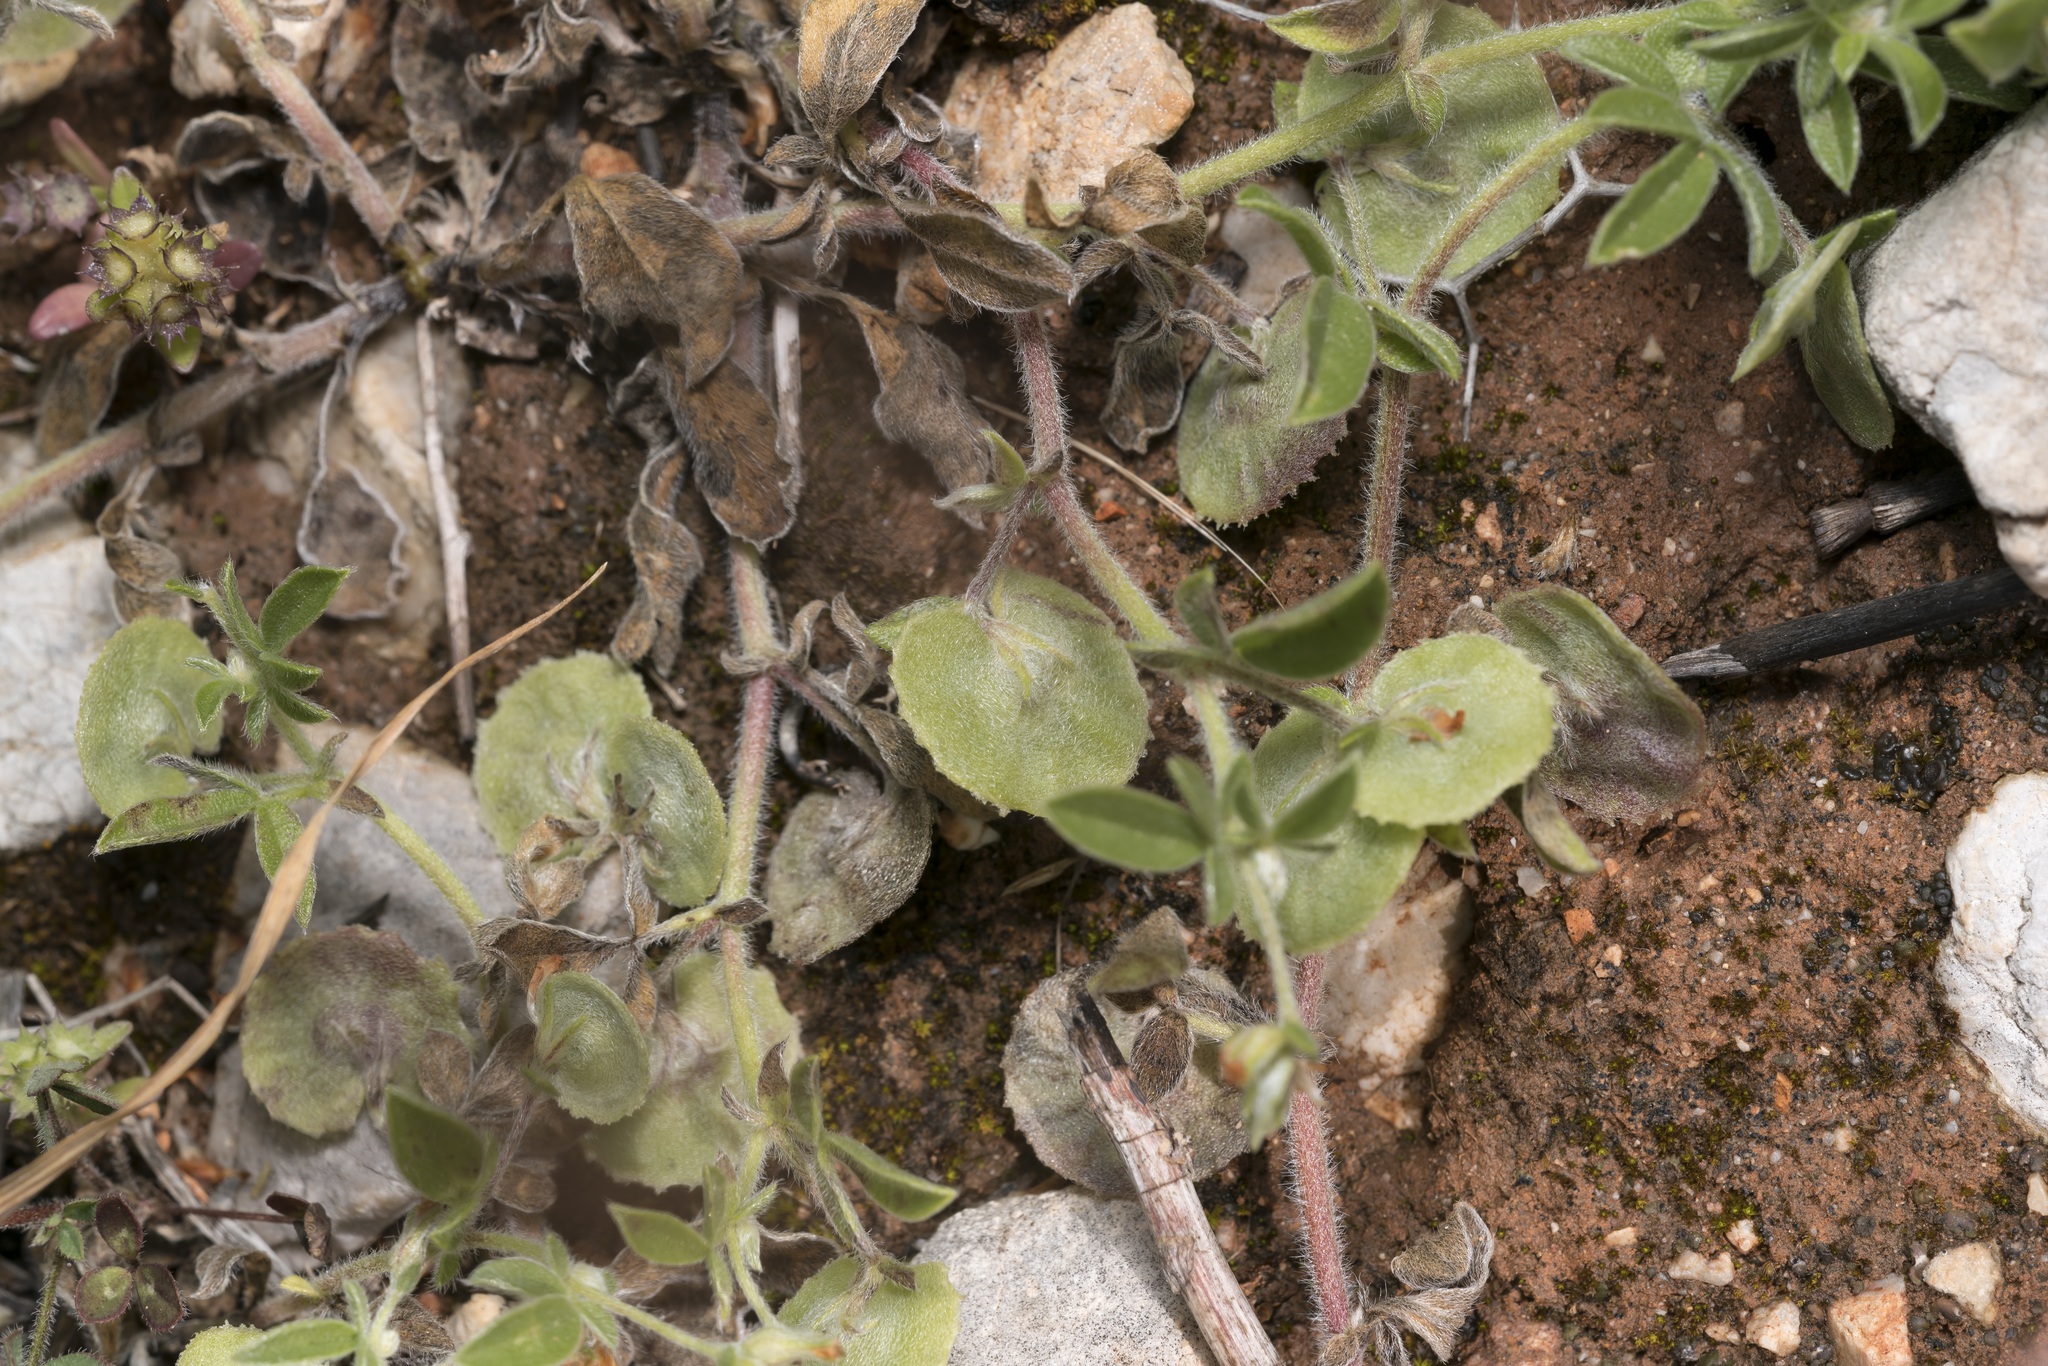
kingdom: Plantae
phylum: Tracheophyta
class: Magnoliopsida
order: Fabales
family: Fabaceae
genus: Anthyllis
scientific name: Anthyllis circinnata
